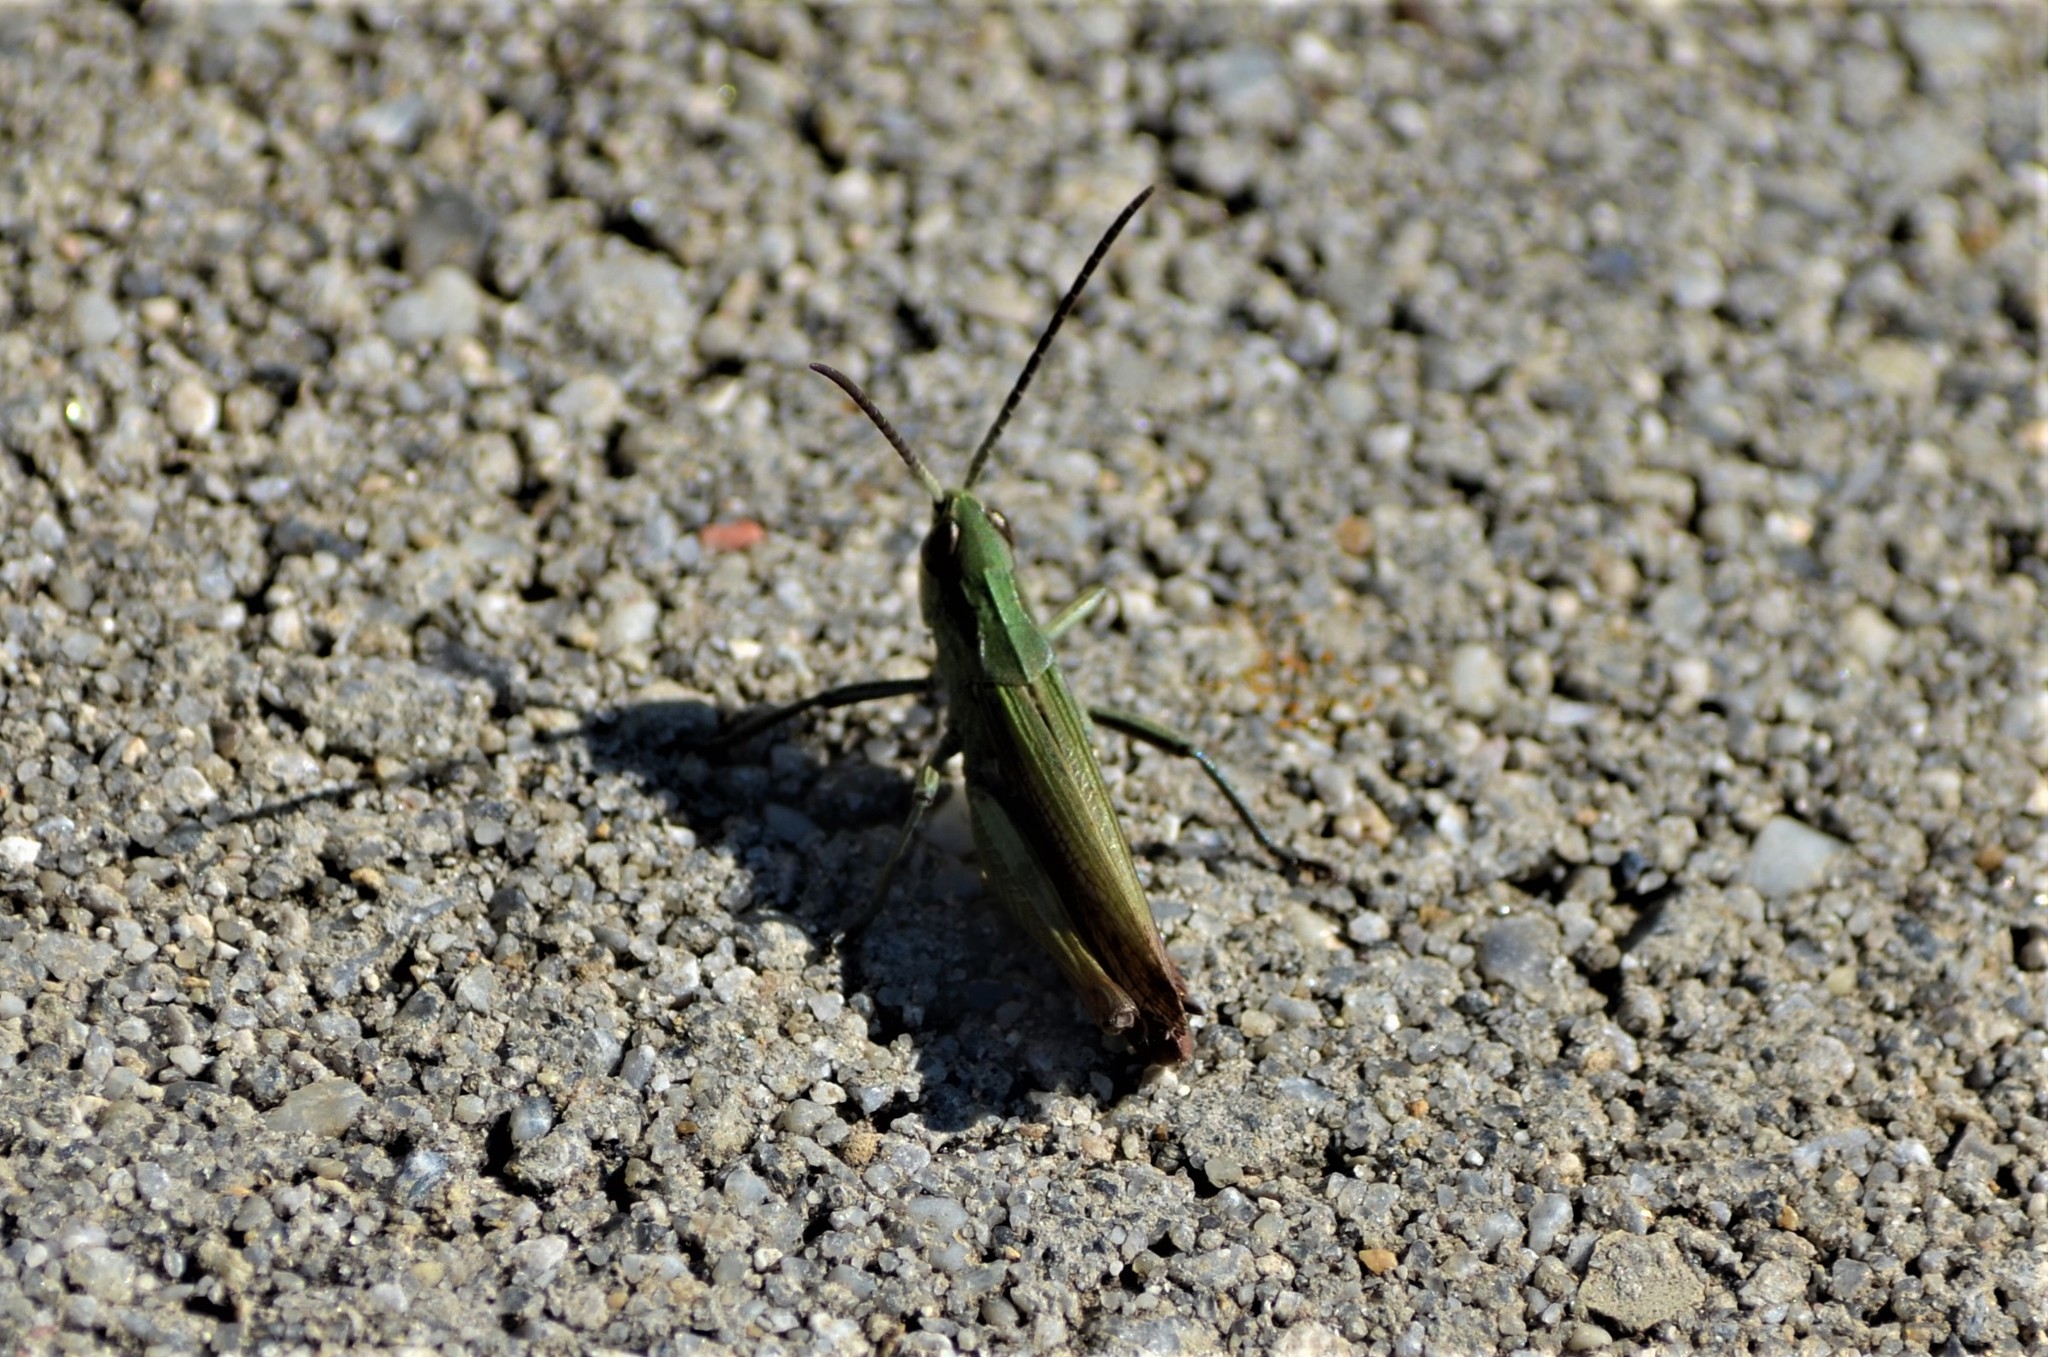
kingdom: Animalia
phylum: Arthropoda
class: Insecta
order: Orthoptera
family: Acrididae
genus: Chorthippus
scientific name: Chorthippus dorsatus
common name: Steppe grasshopper
